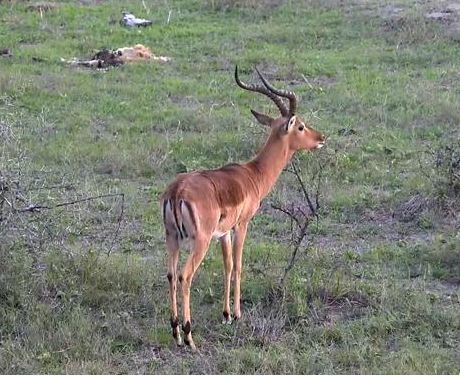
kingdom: Animalia
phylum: Chordata
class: Mammalia
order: Artiodactyla
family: Bovidae
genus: Aepyceros
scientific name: Aepyceros melampus
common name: Impala
